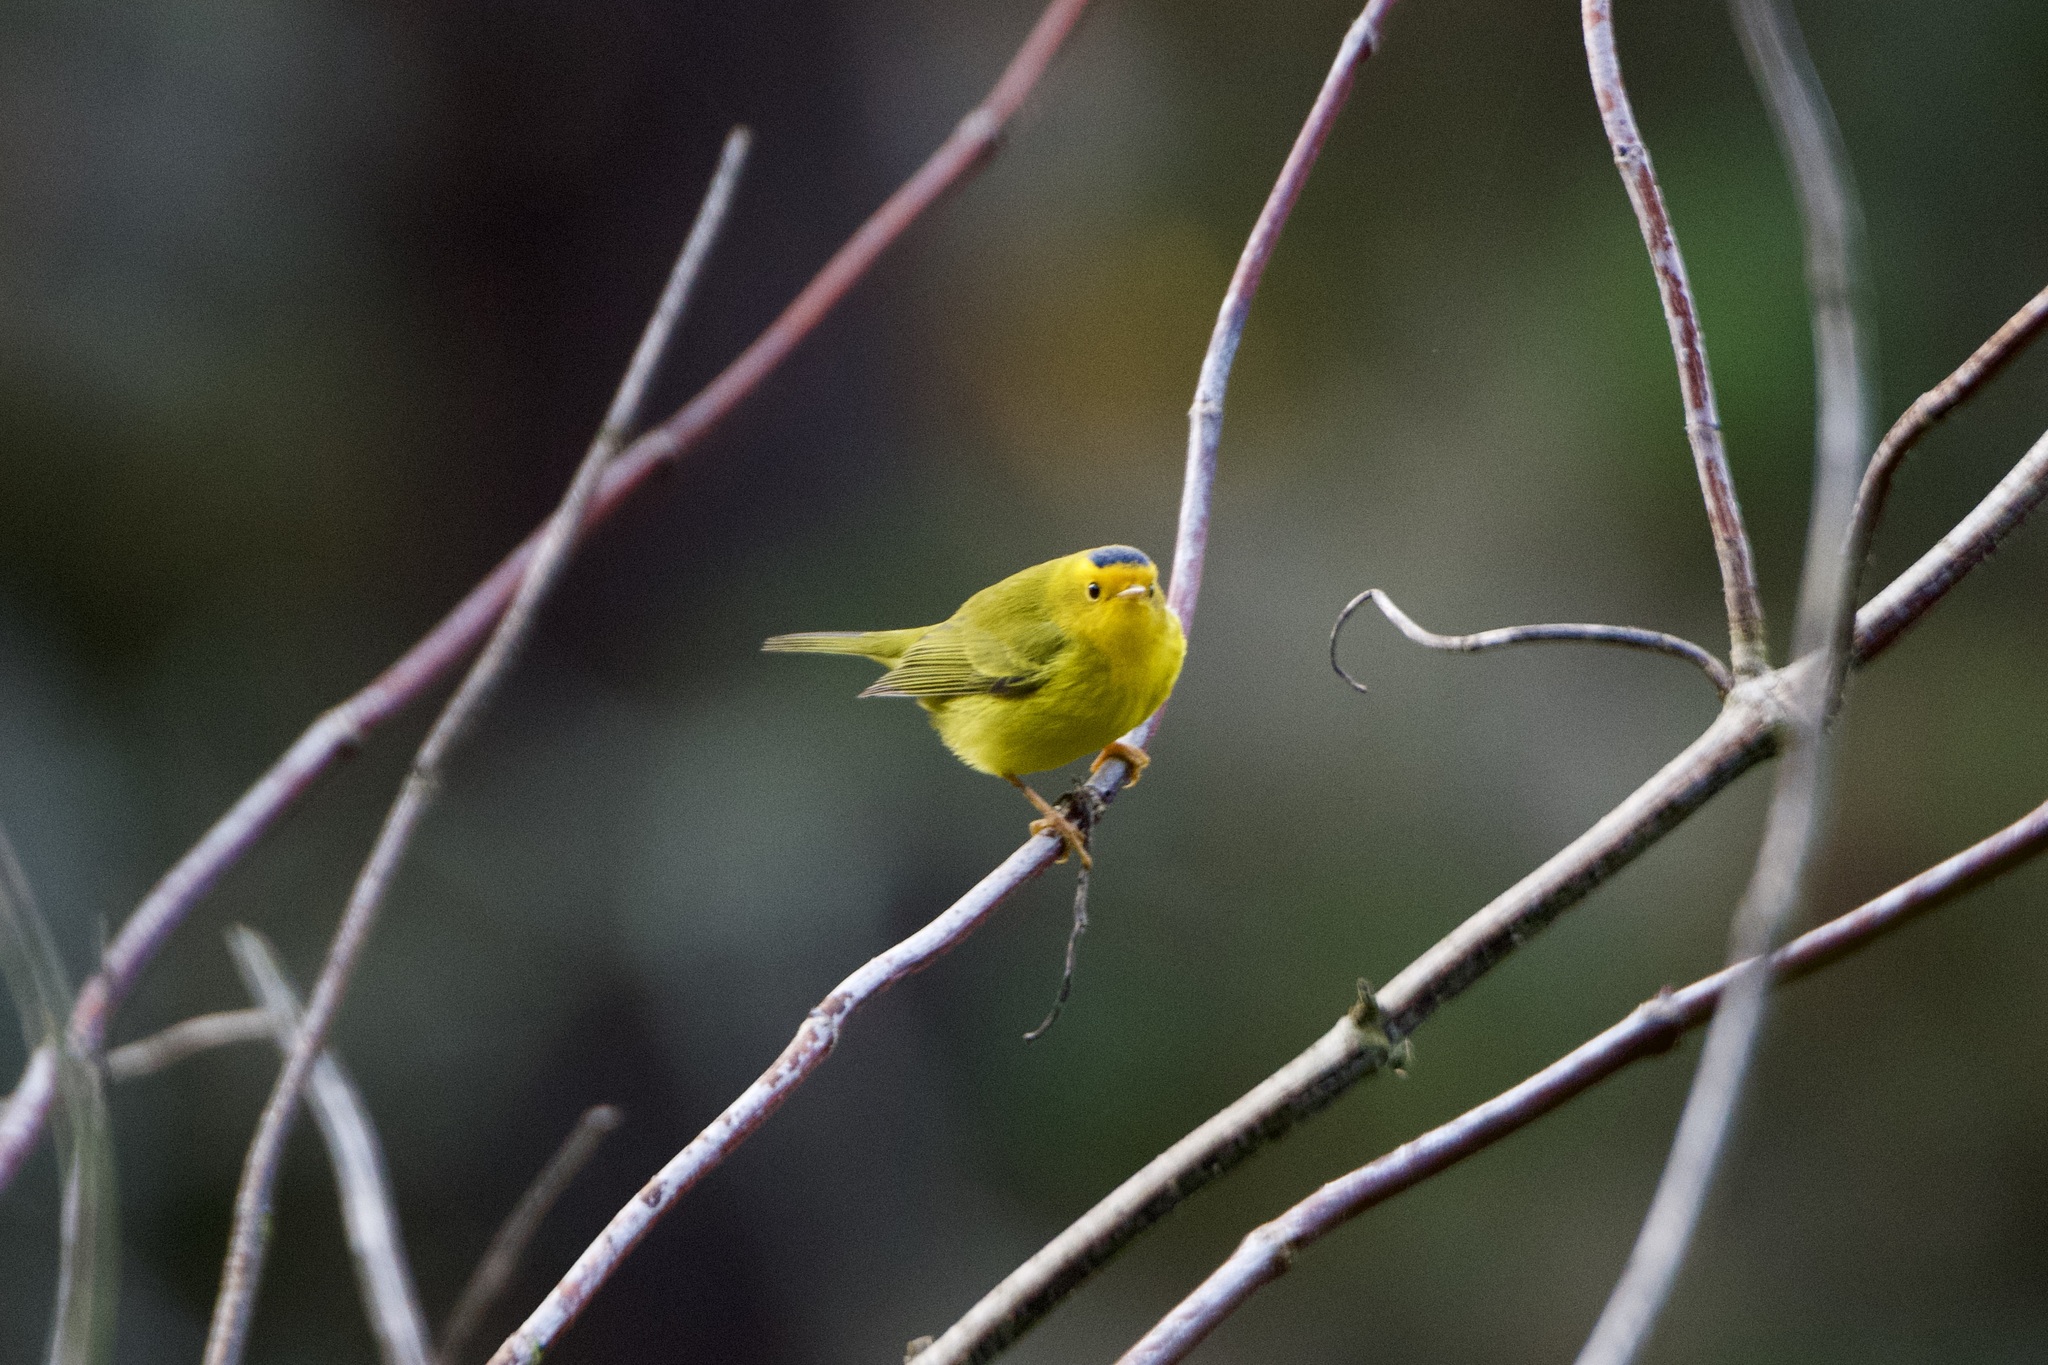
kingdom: Animalia
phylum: Chordata
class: Aves
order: Passeriformes
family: Parulidae
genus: Cardellina
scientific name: Cardellina pusilla
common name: Wilson's warbler
